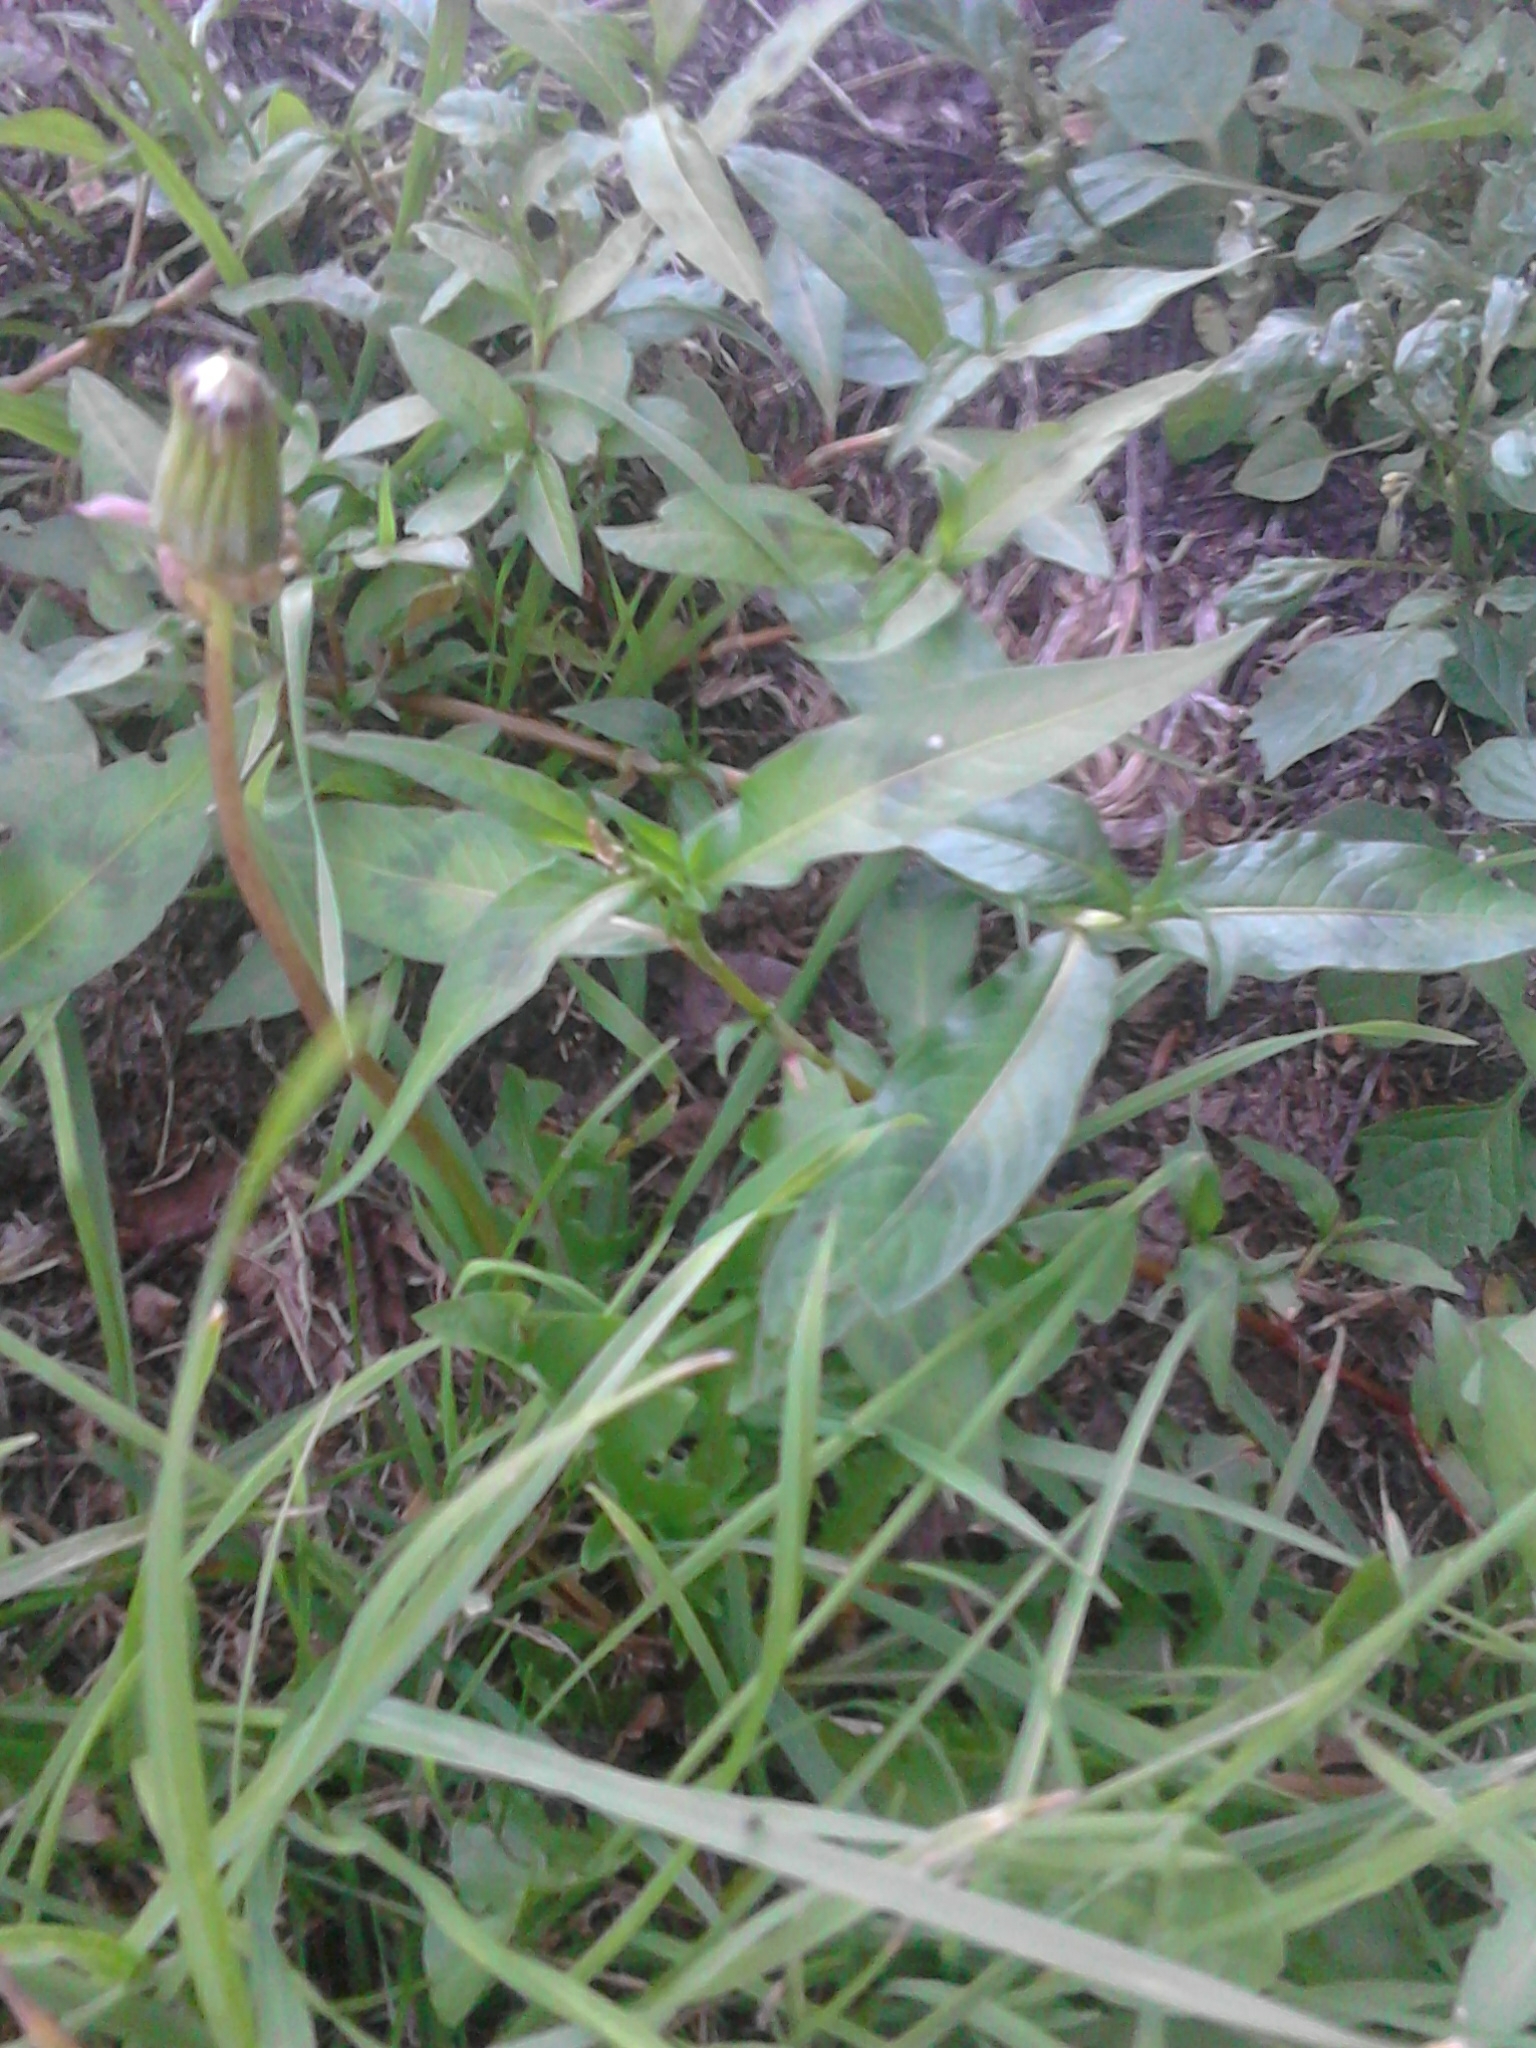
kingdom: Plantae
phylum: Tracheophyta
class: Magnoliopsida
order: Caryophyllales
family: Polygonaceae
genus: Persicaria
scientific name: Persicaria maculosa
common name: Redshank
